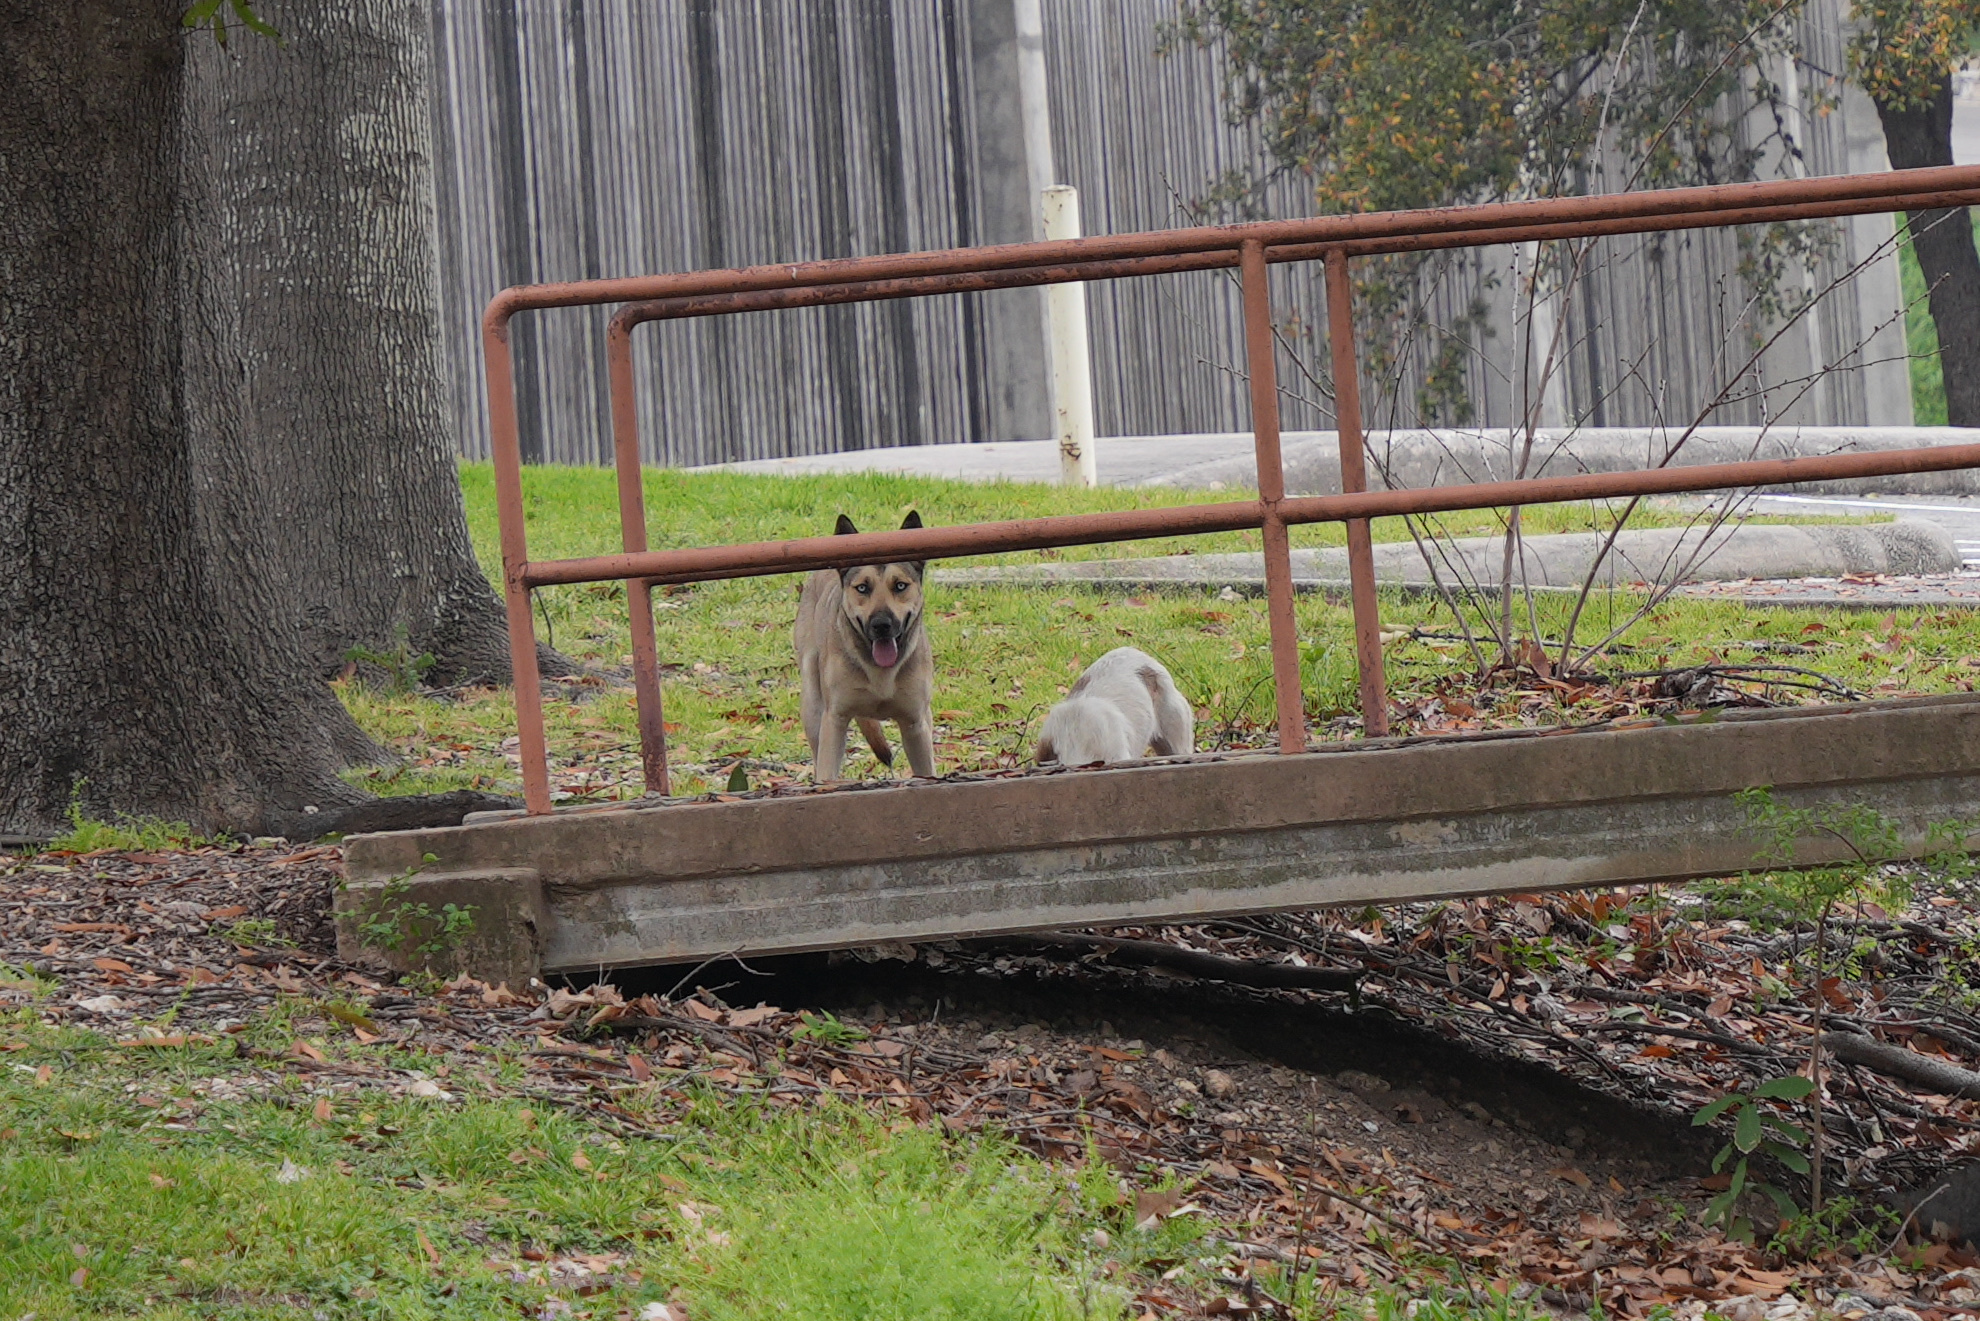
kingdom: Animalia
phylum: Chordata
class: Mammalia
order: Carnivora
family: Canidae
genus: Canis
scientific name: Canis lupus
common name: Gray wolf
